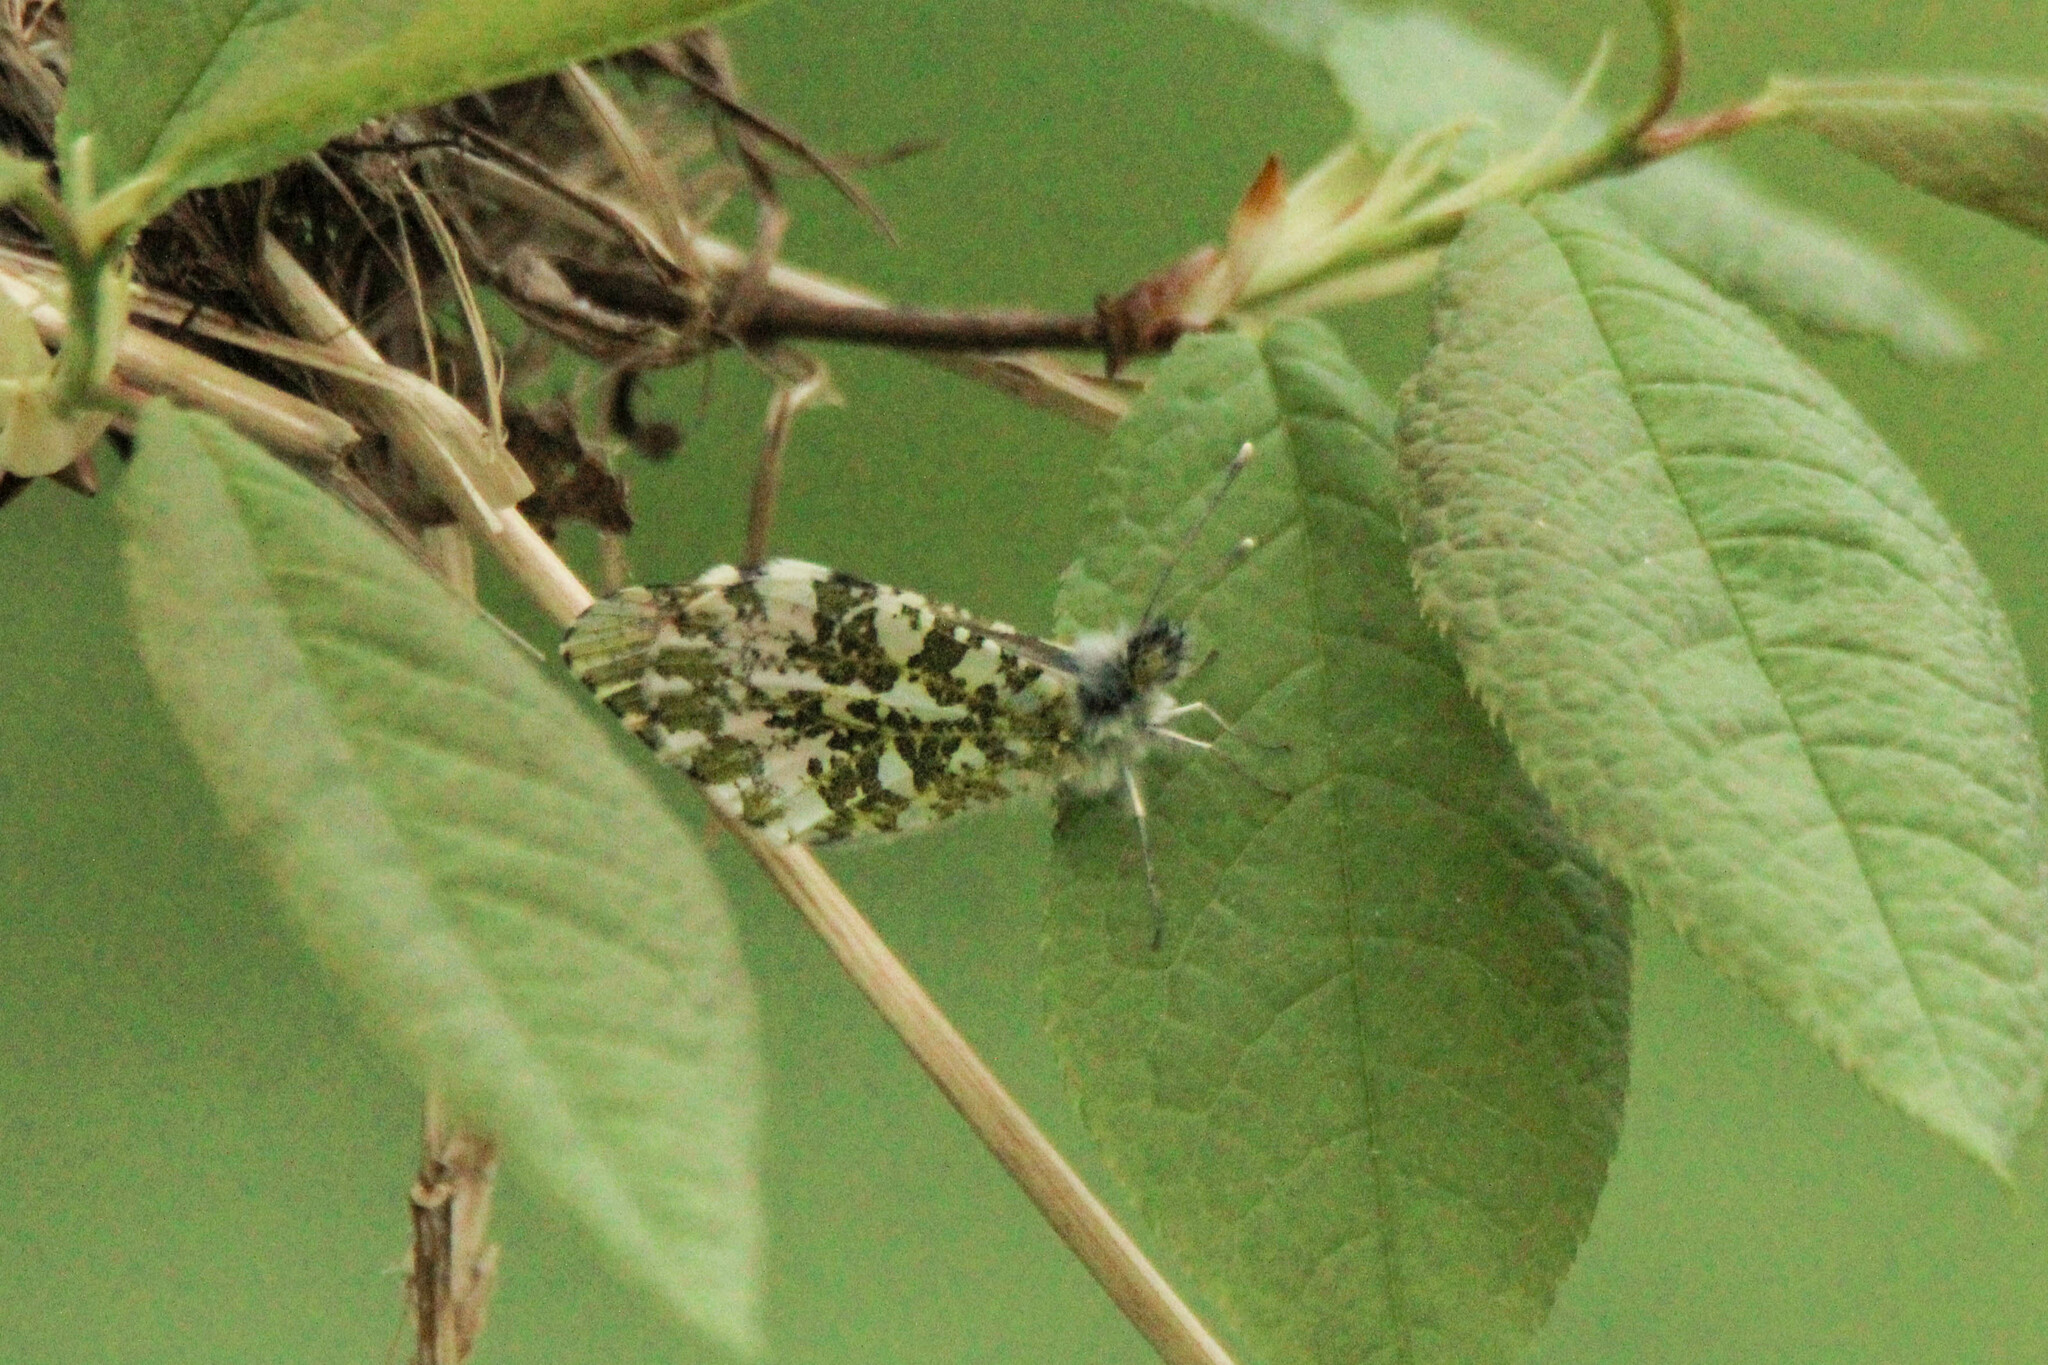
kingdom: Animalia
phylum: Arthropoda
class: Insecta
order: Lepidoptera
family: Pieridae
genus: Anthocharis
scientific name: Anthocharis cardamines
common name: Orange-tip
